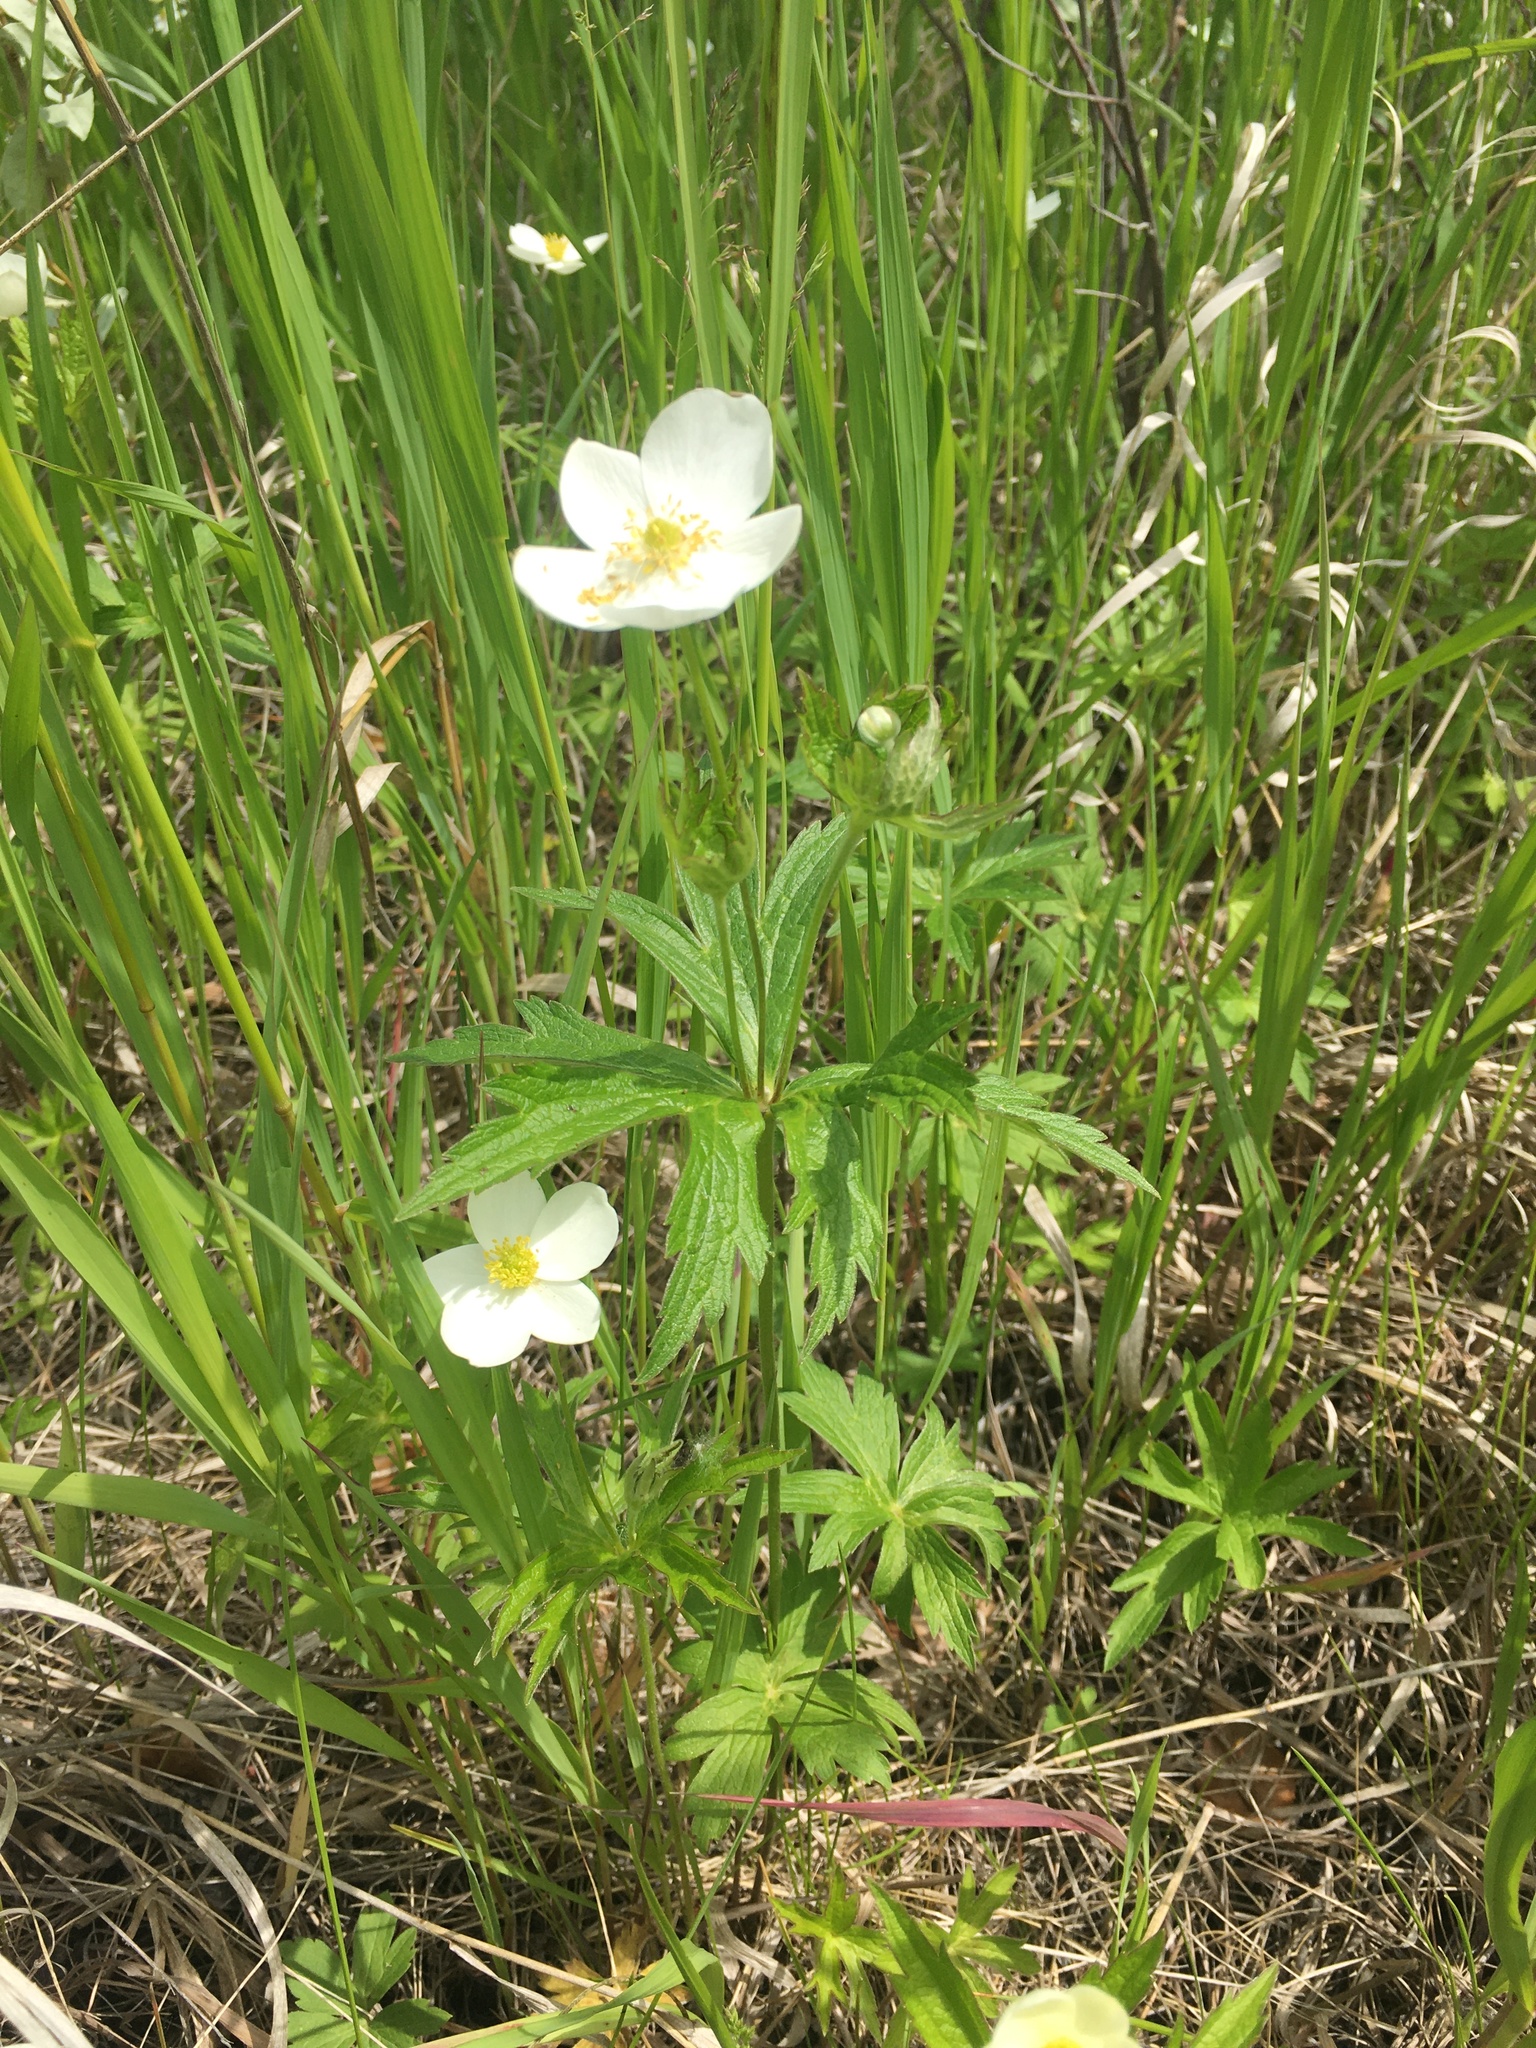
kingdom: Plantae
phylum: Tracheophyta
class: Magnoliopsida
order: Ranunculales
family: Ranunculaceae
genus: Anemonastrum
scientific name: Anemonastrum canadense
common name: Canada anemone
